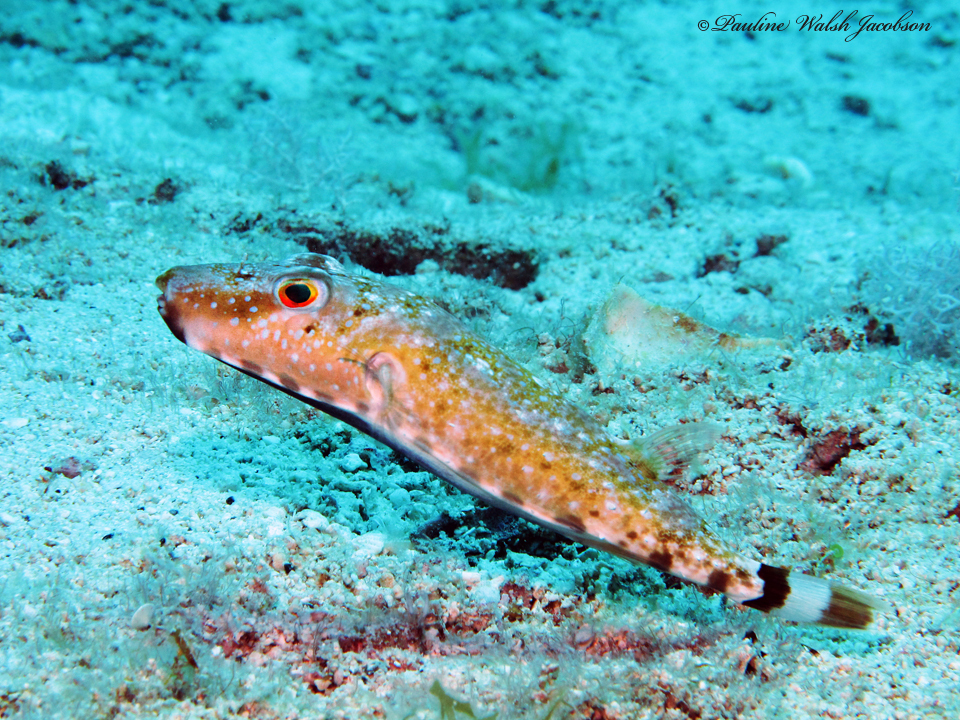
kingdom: Animalia
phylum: Chordata
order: Tetraodontiformes
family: Tetraodontidae
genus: Sphoeroides
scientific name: Sphoeroides spengleri
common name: Bandtail puffer
